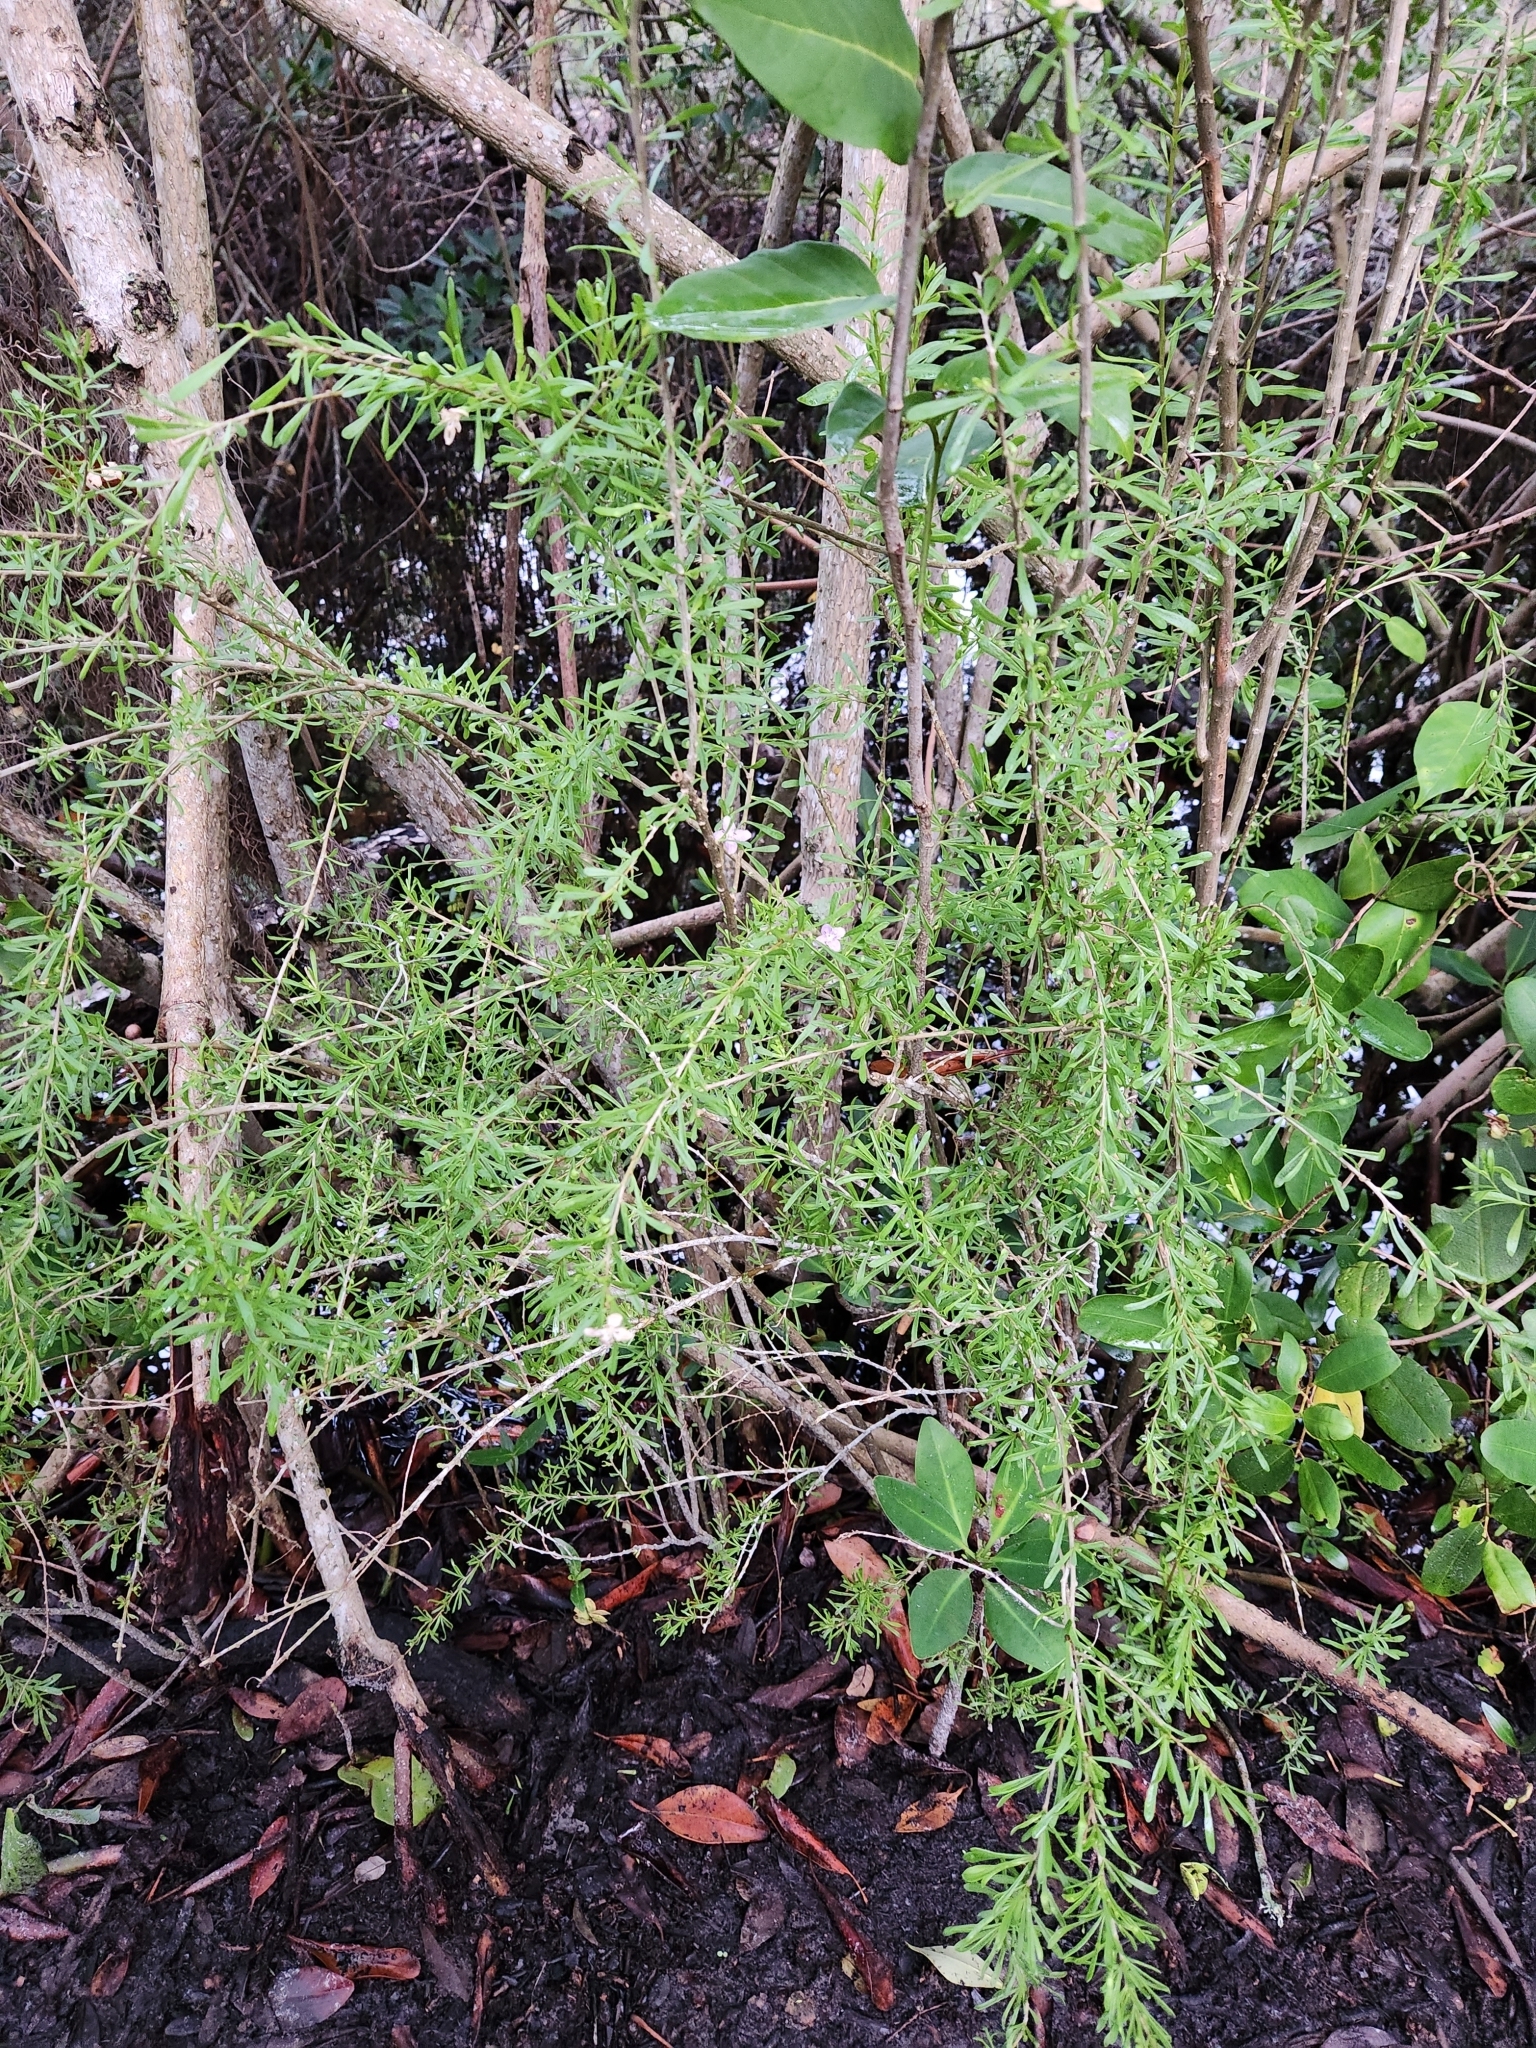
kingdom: Plantae
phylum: Tracheophyta
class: Magnoliopsida
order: Solanales
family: Solanaceae
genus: Lycium
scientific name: Lycium carolinianum
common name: Christmasberry
